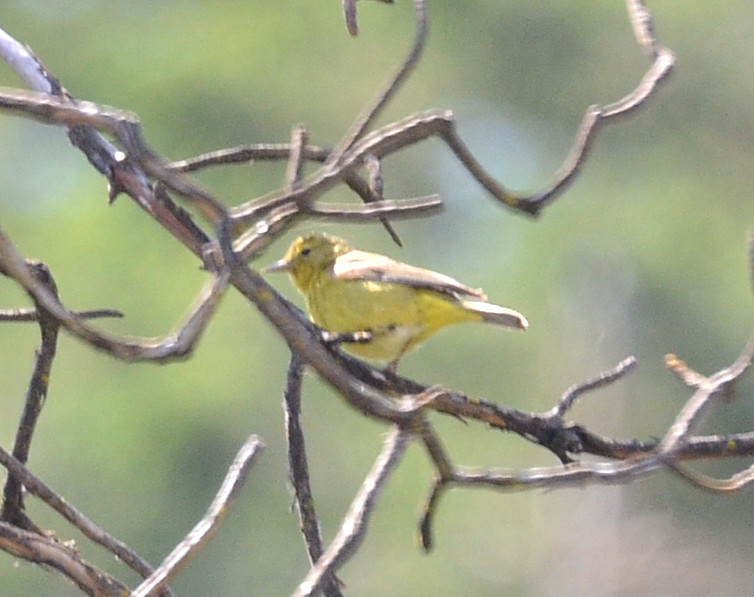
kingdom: Animalia
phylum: Chordata
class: Aves
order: Passeriformes
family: Parulidae
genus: Setophaga
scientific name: Setophaga petechia
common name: Yellow warbler
